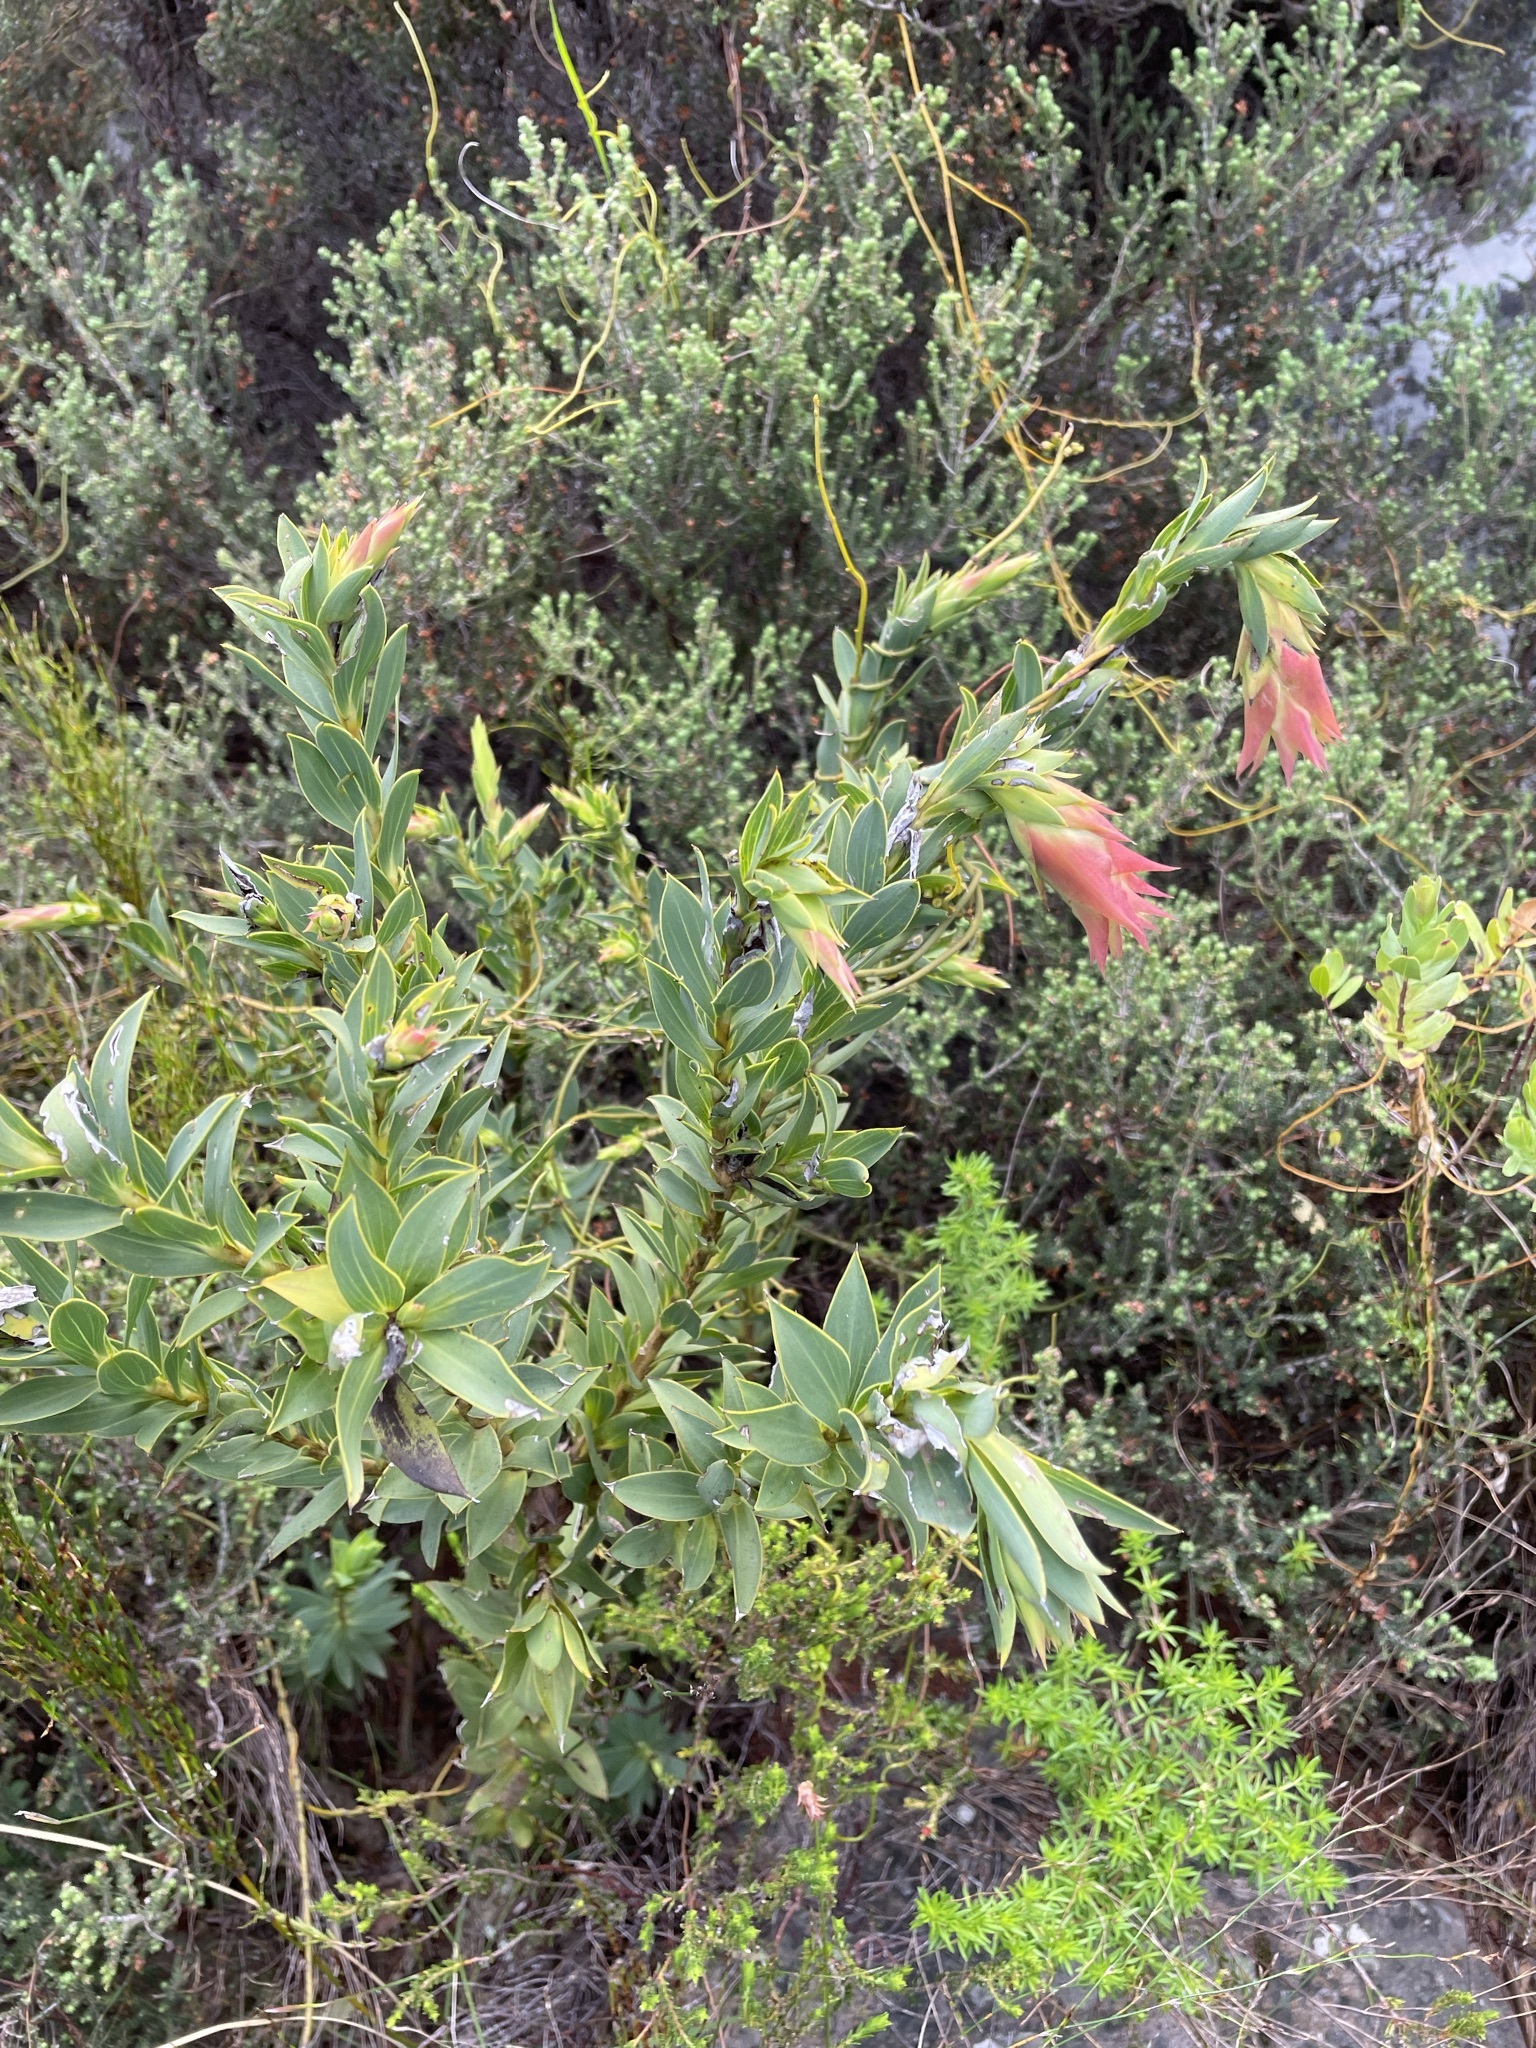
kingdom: Plantae
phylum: Tracheophyta
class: Magnoliopsida
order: Fabales
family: Fabaceae
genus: Liparia
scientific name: Liparia splendens
